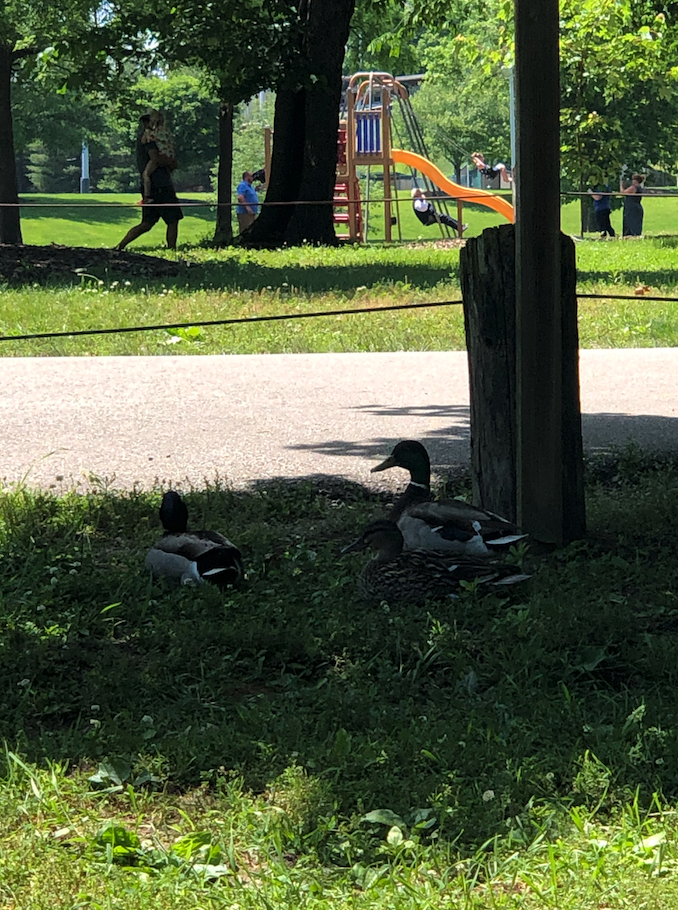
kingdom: Animalia
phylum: Chordata
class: Aves
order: Anseriformes
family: Anatidae
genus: Anas
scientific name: Anas platyrhynchos
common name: Mallard
